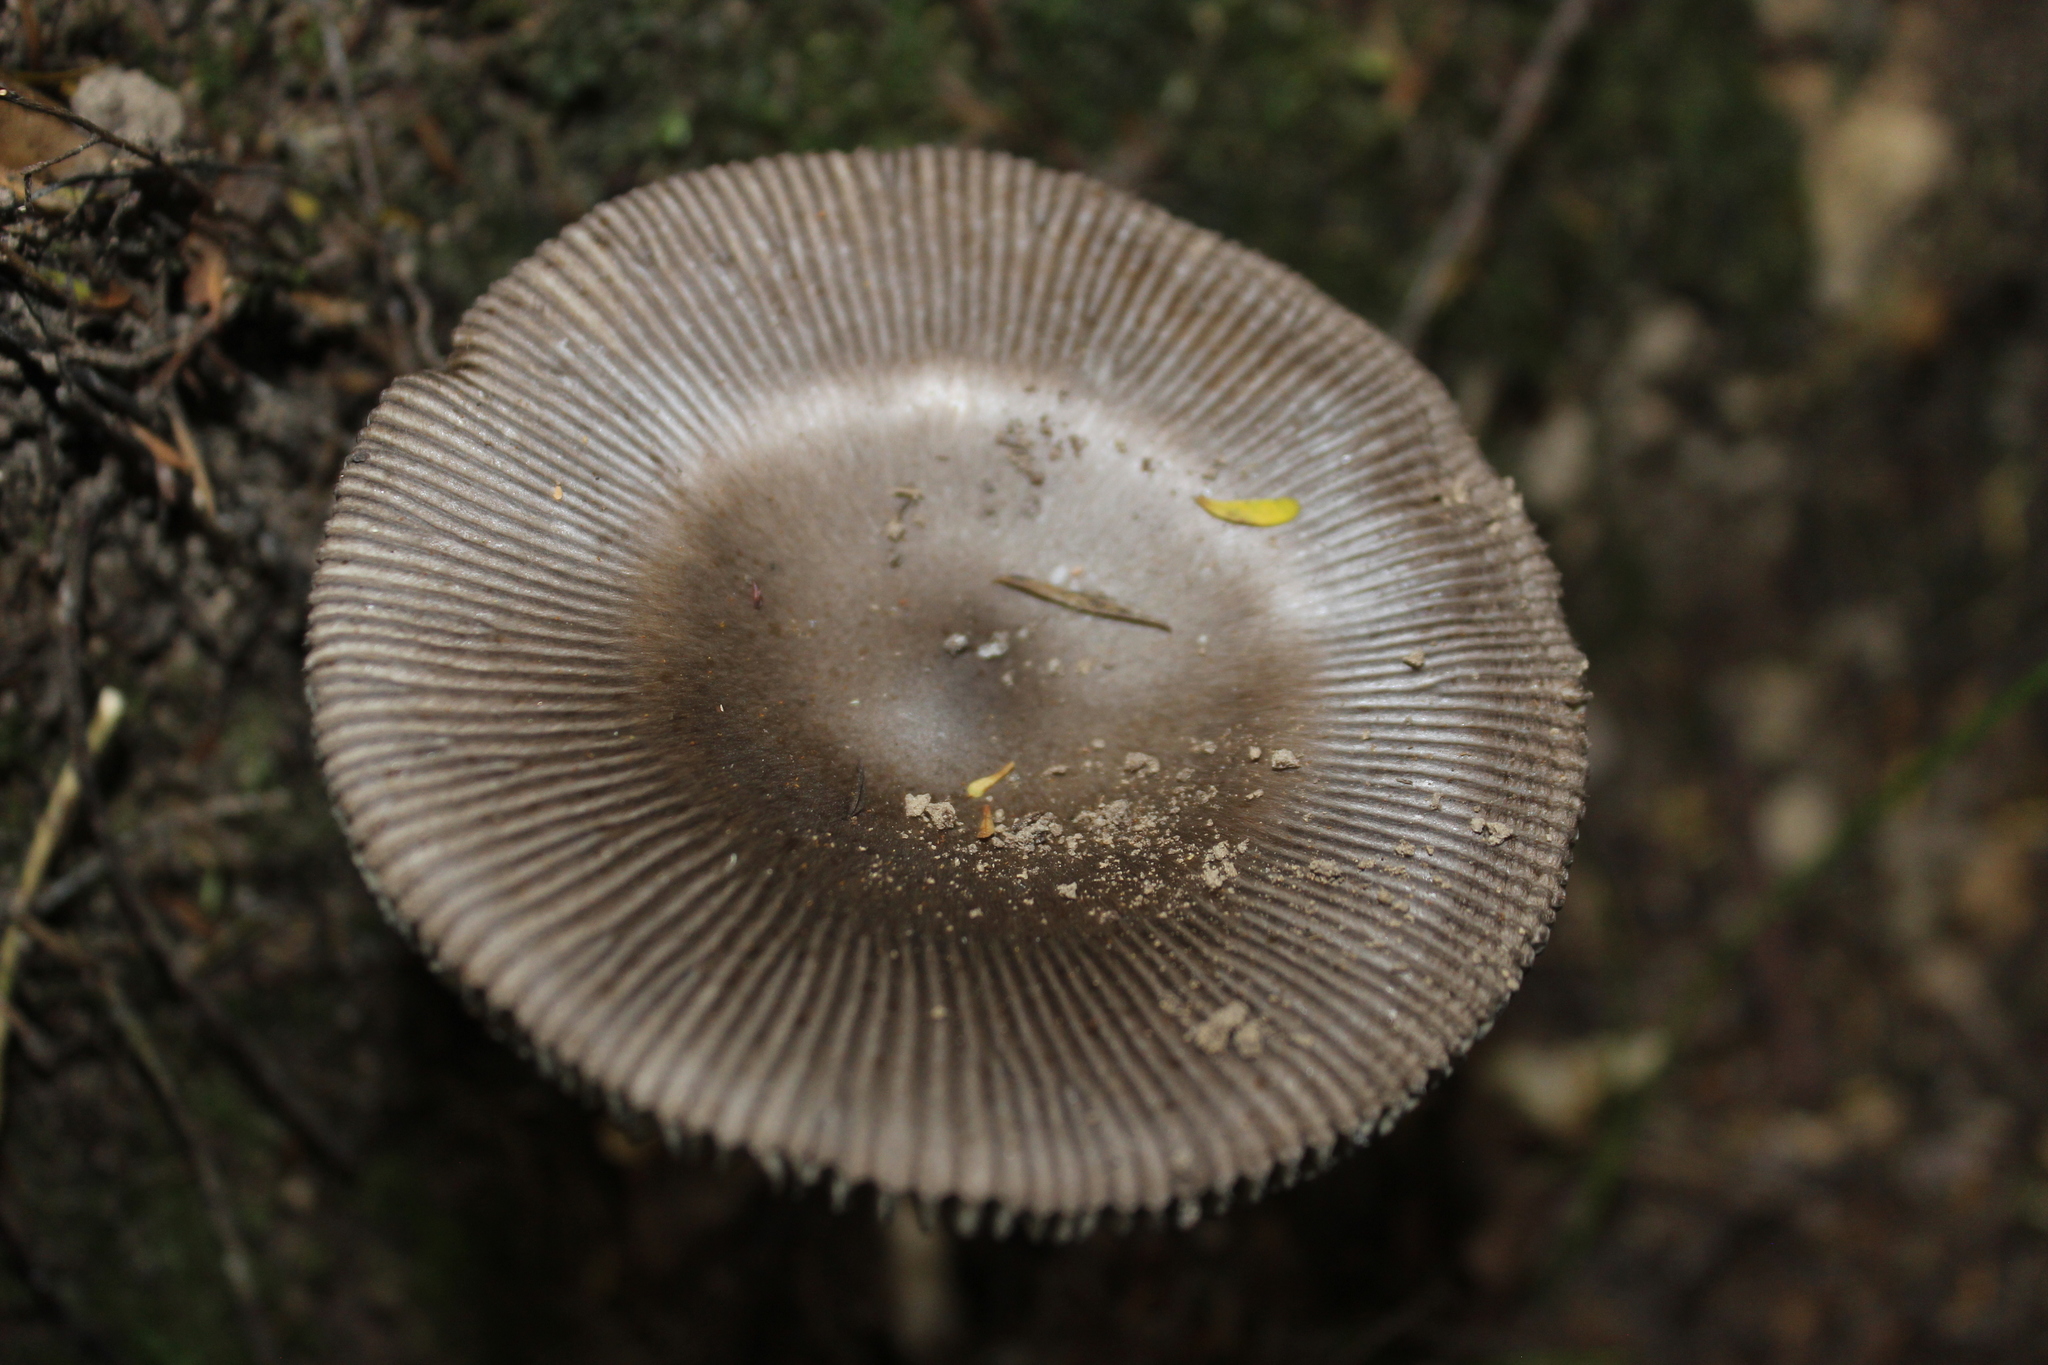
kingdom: Fungi
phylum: Basidiomycota
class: Agaricomycetes
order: Agaricales
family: Amanitaceae
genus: Amanita
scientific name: Amanita pekeoides
